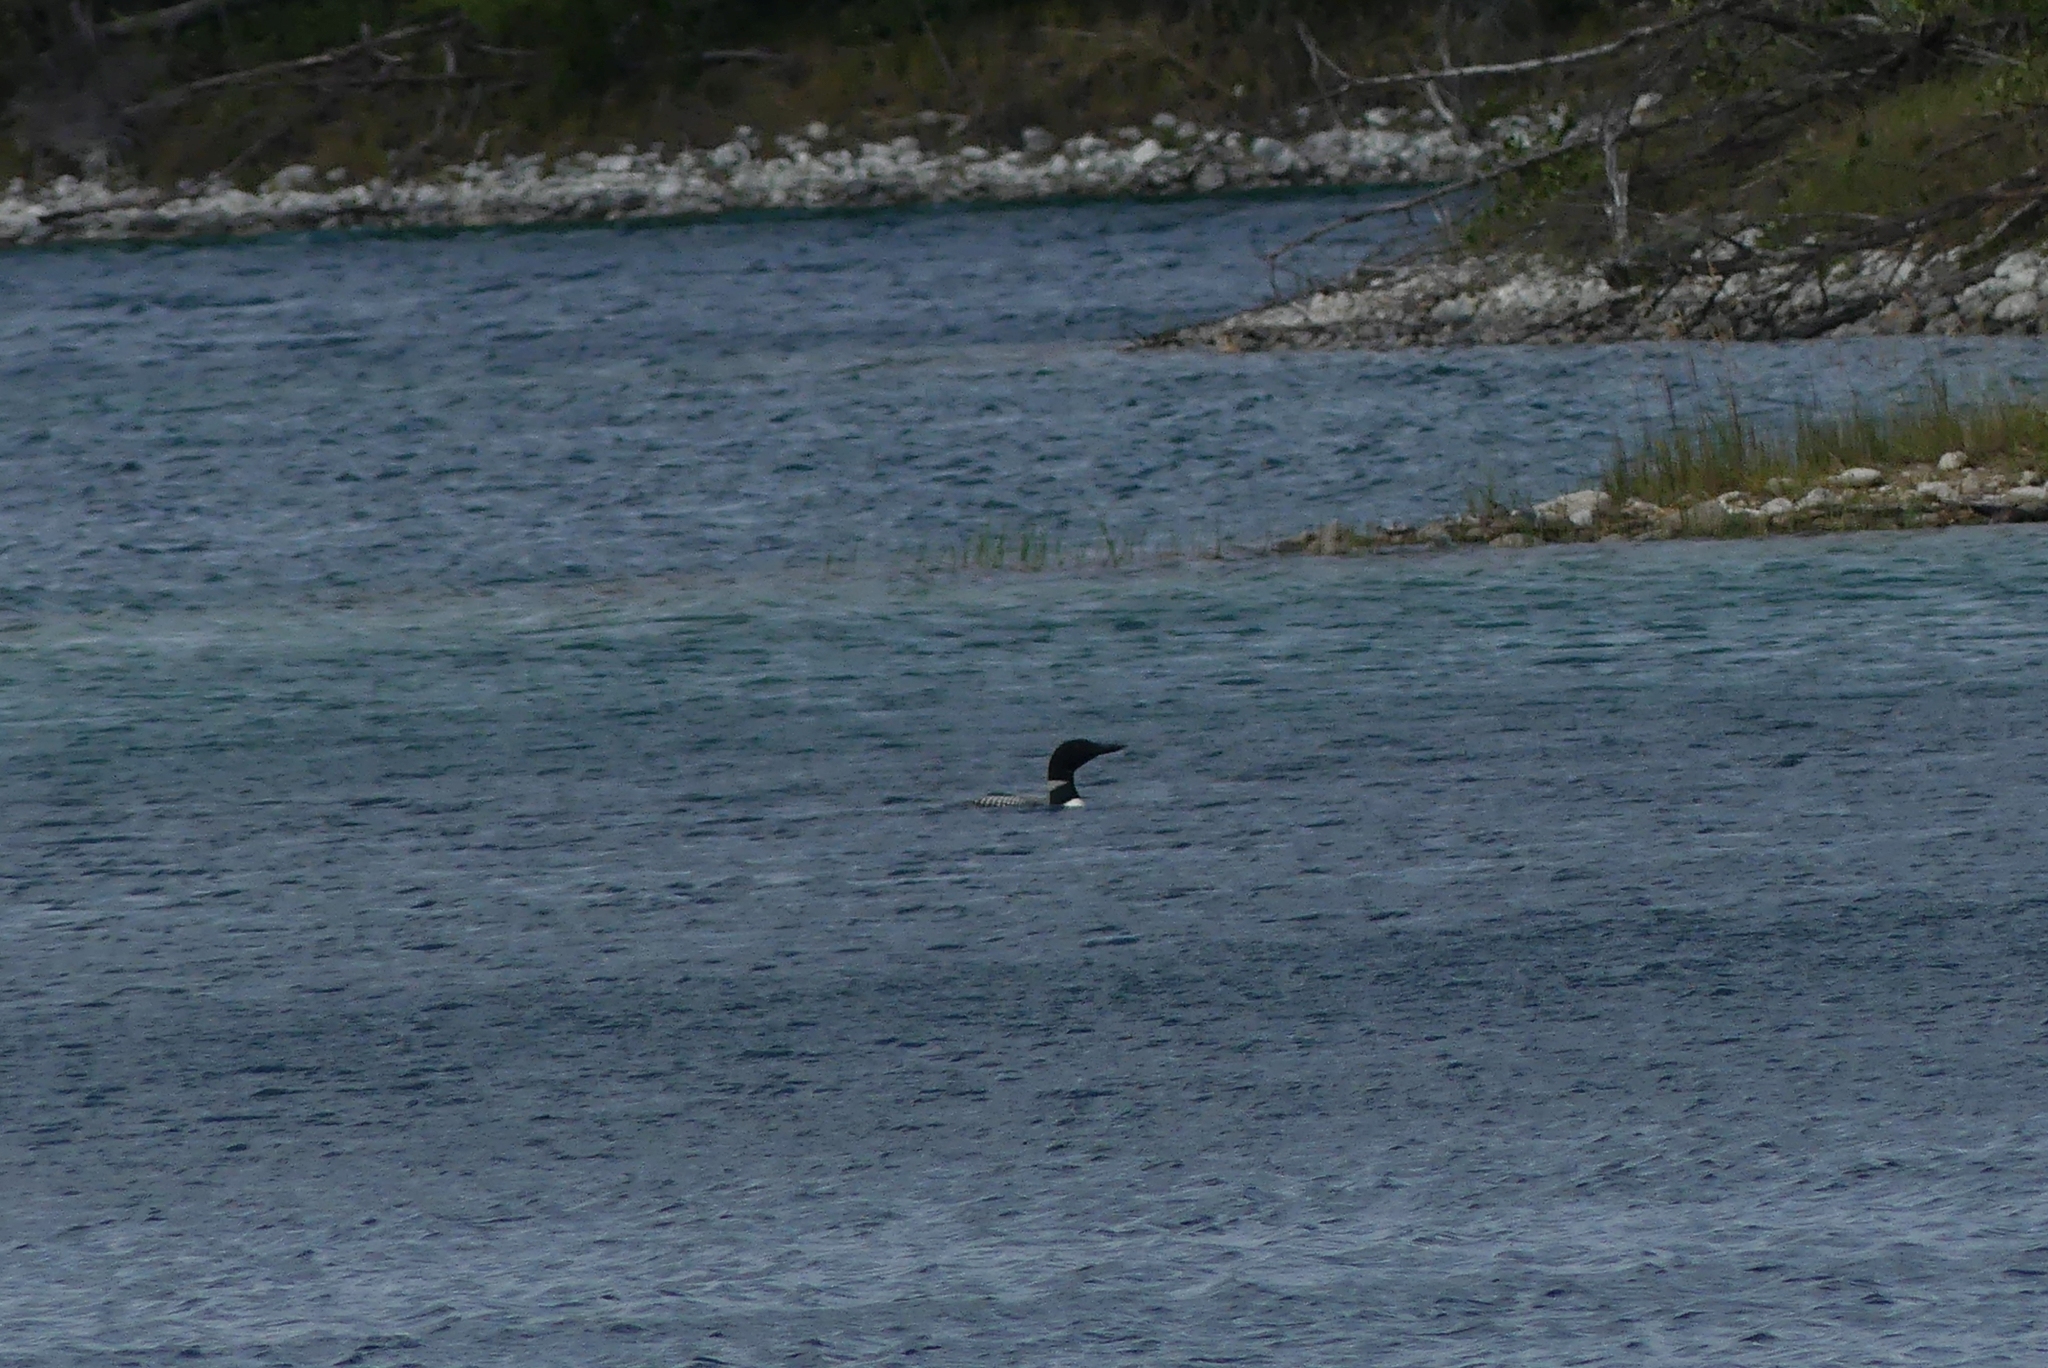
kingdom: Animalia
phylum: Chordata
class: Aves
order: Gaviiformes
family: Gaviidae
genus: Gavia
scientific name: Gavia immer
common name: Common loon
